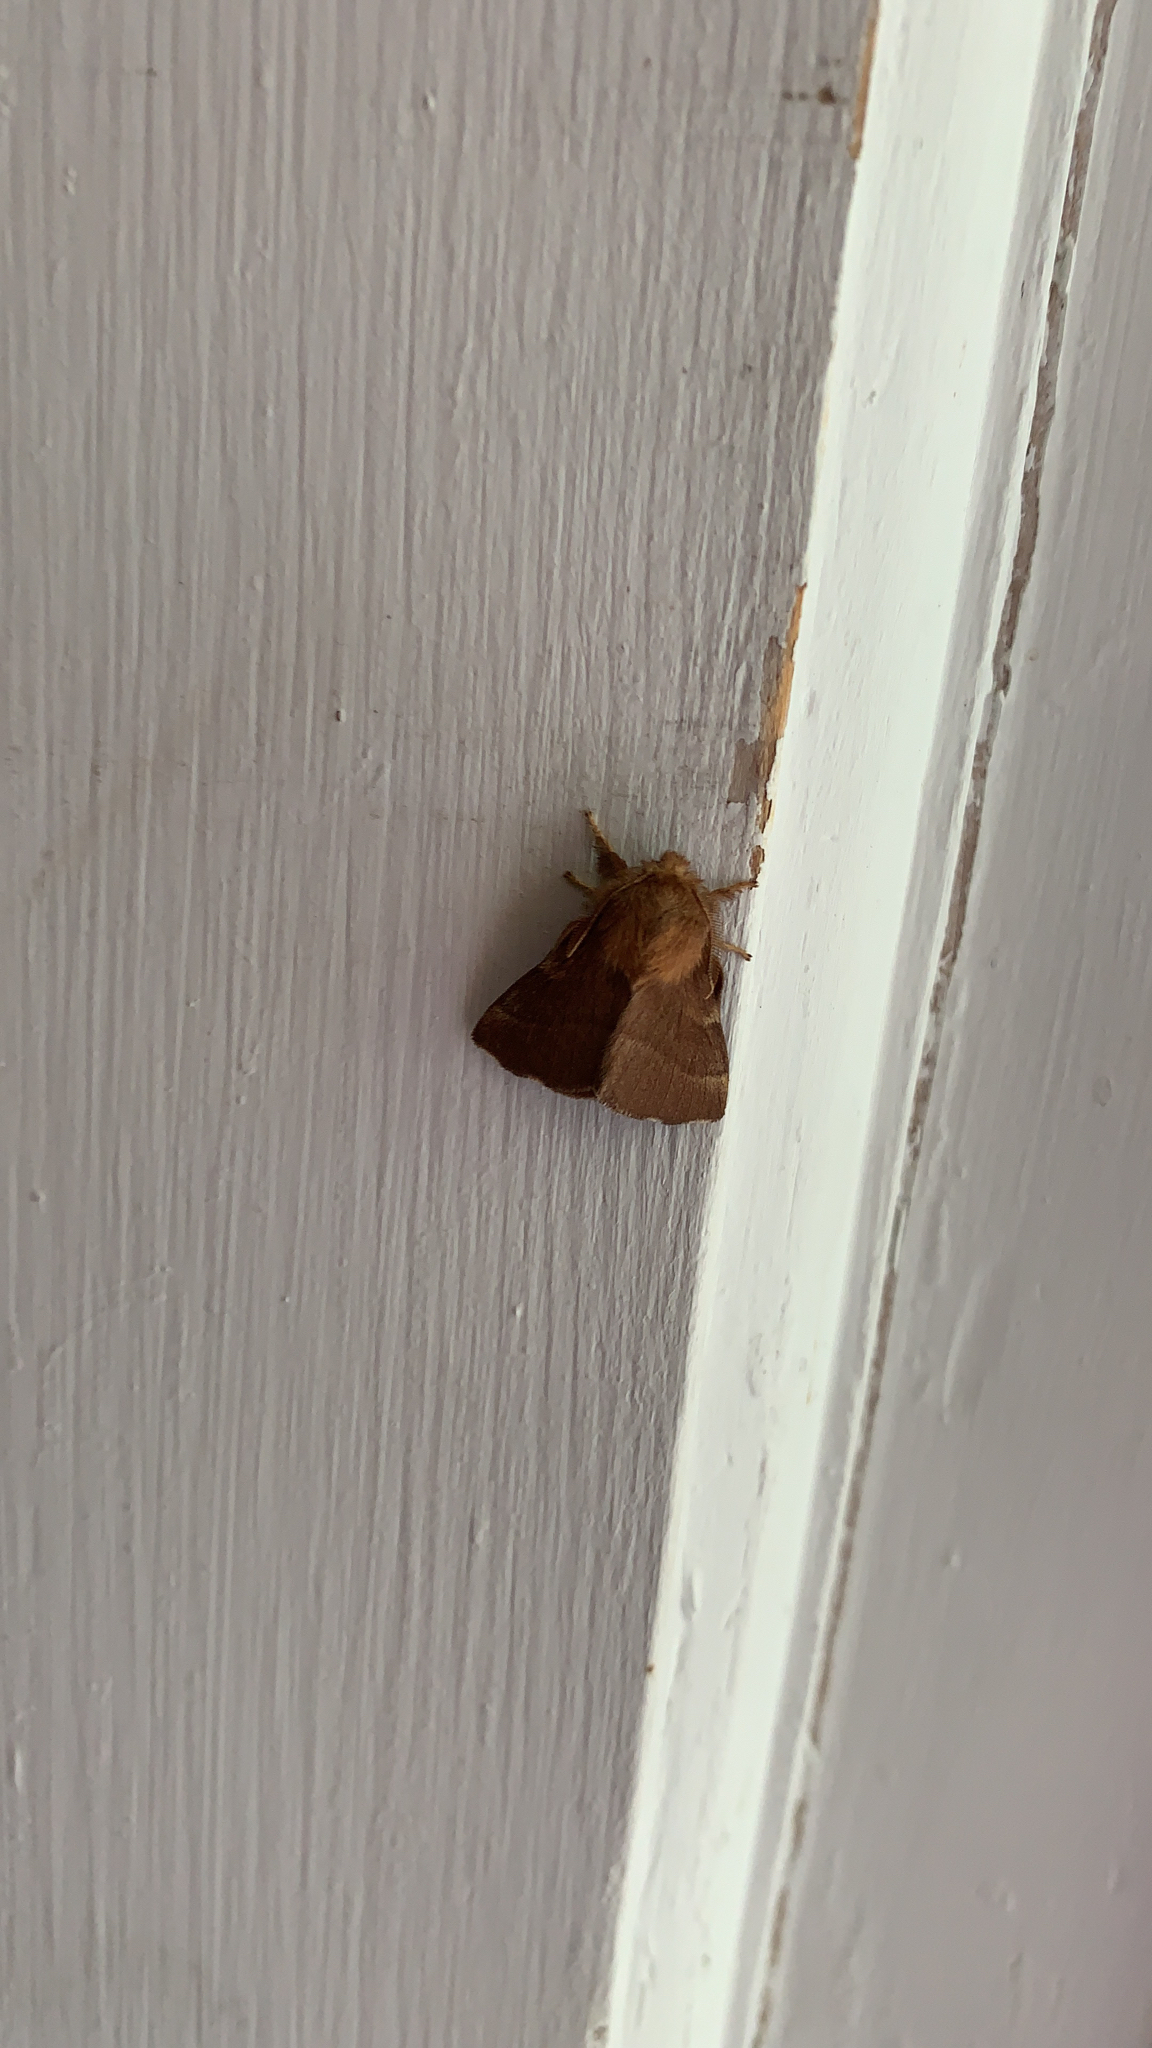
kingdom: Animalia
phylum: Arthropoda
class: Insecta
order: Lepidoptera
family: Lasiocampidae
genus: Malacosoma
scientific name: Malacosoma disstria
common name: Forest tent caterpillar
